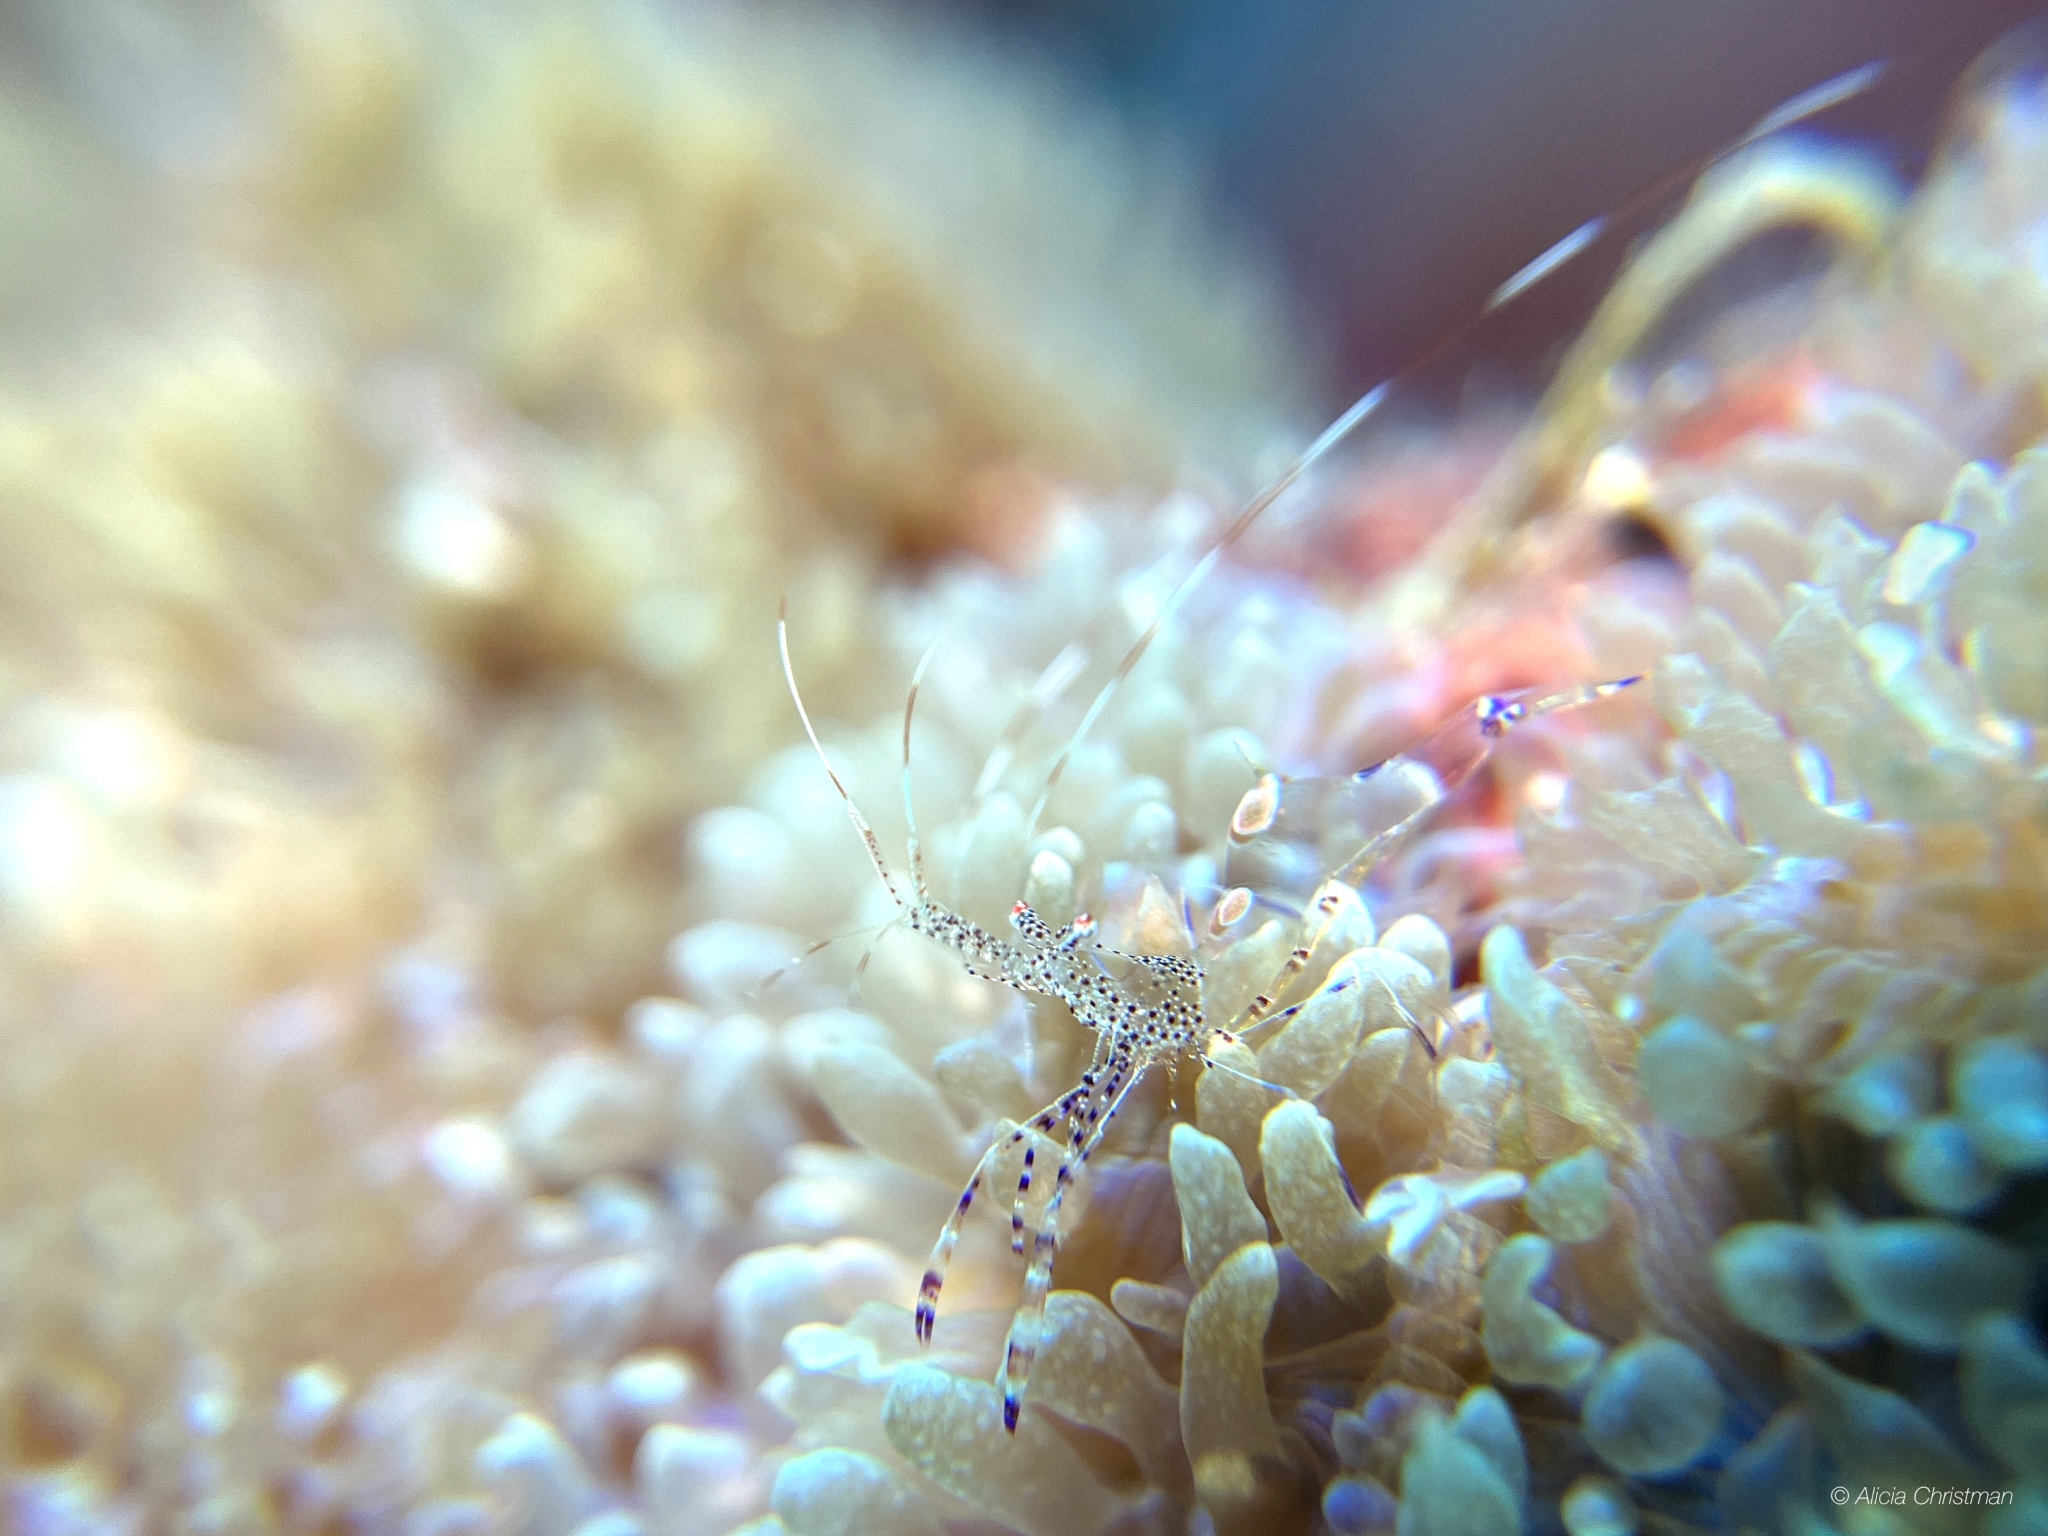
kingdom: Animalia
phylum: Arthropoda
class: Malacostraca
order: Decapoda
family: Palaemonidae
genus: Periclimenes
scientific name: Periclimenes yucatanicus
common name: Spotted cleaning shrimp
